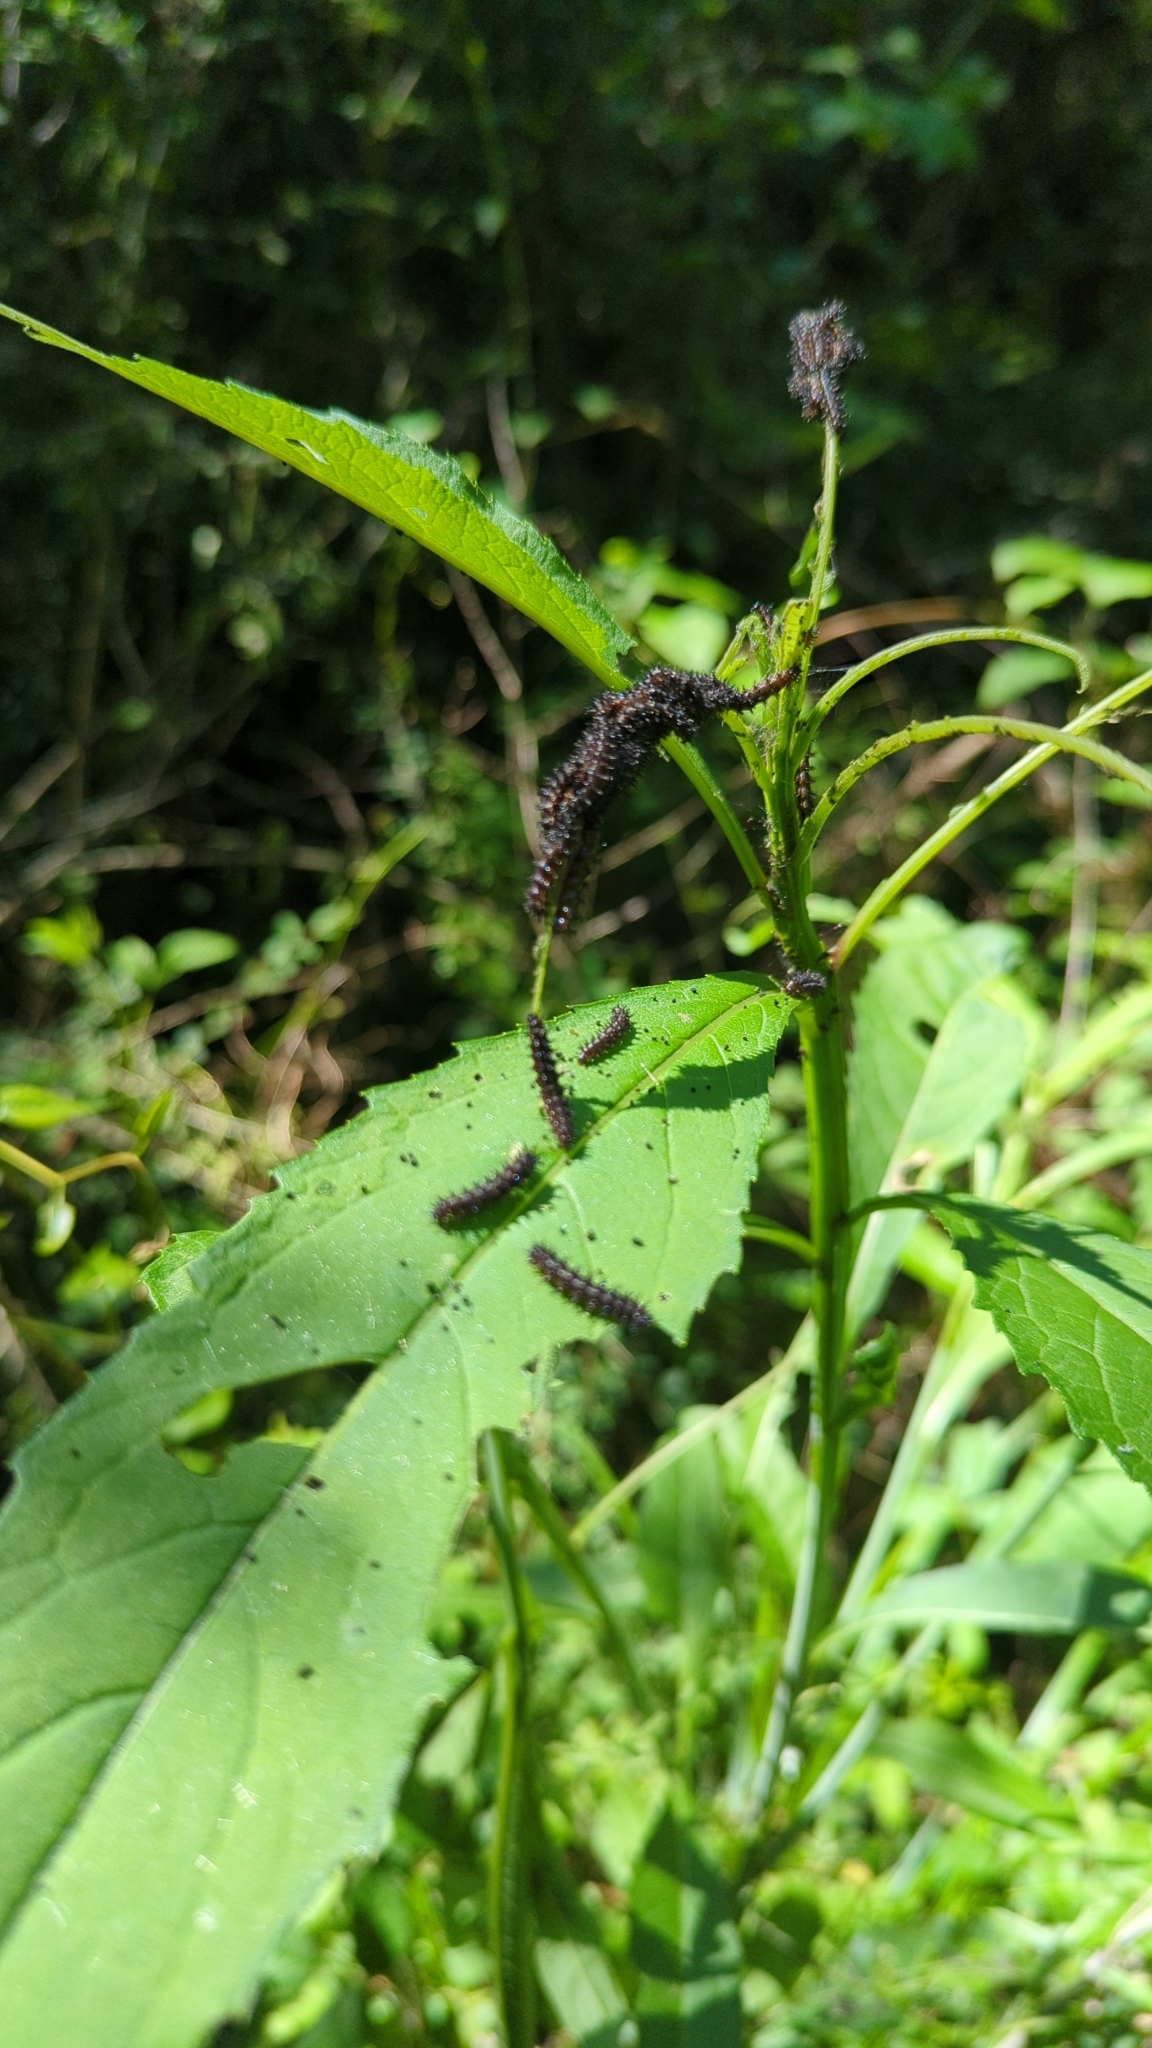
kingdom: Animalia
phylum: Arthropoda
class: Insecta
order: Lepidoptera
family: Nymphalidae
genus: Chlosyne
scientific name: Chlosyne nycteis
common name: Silvery checkerspot
